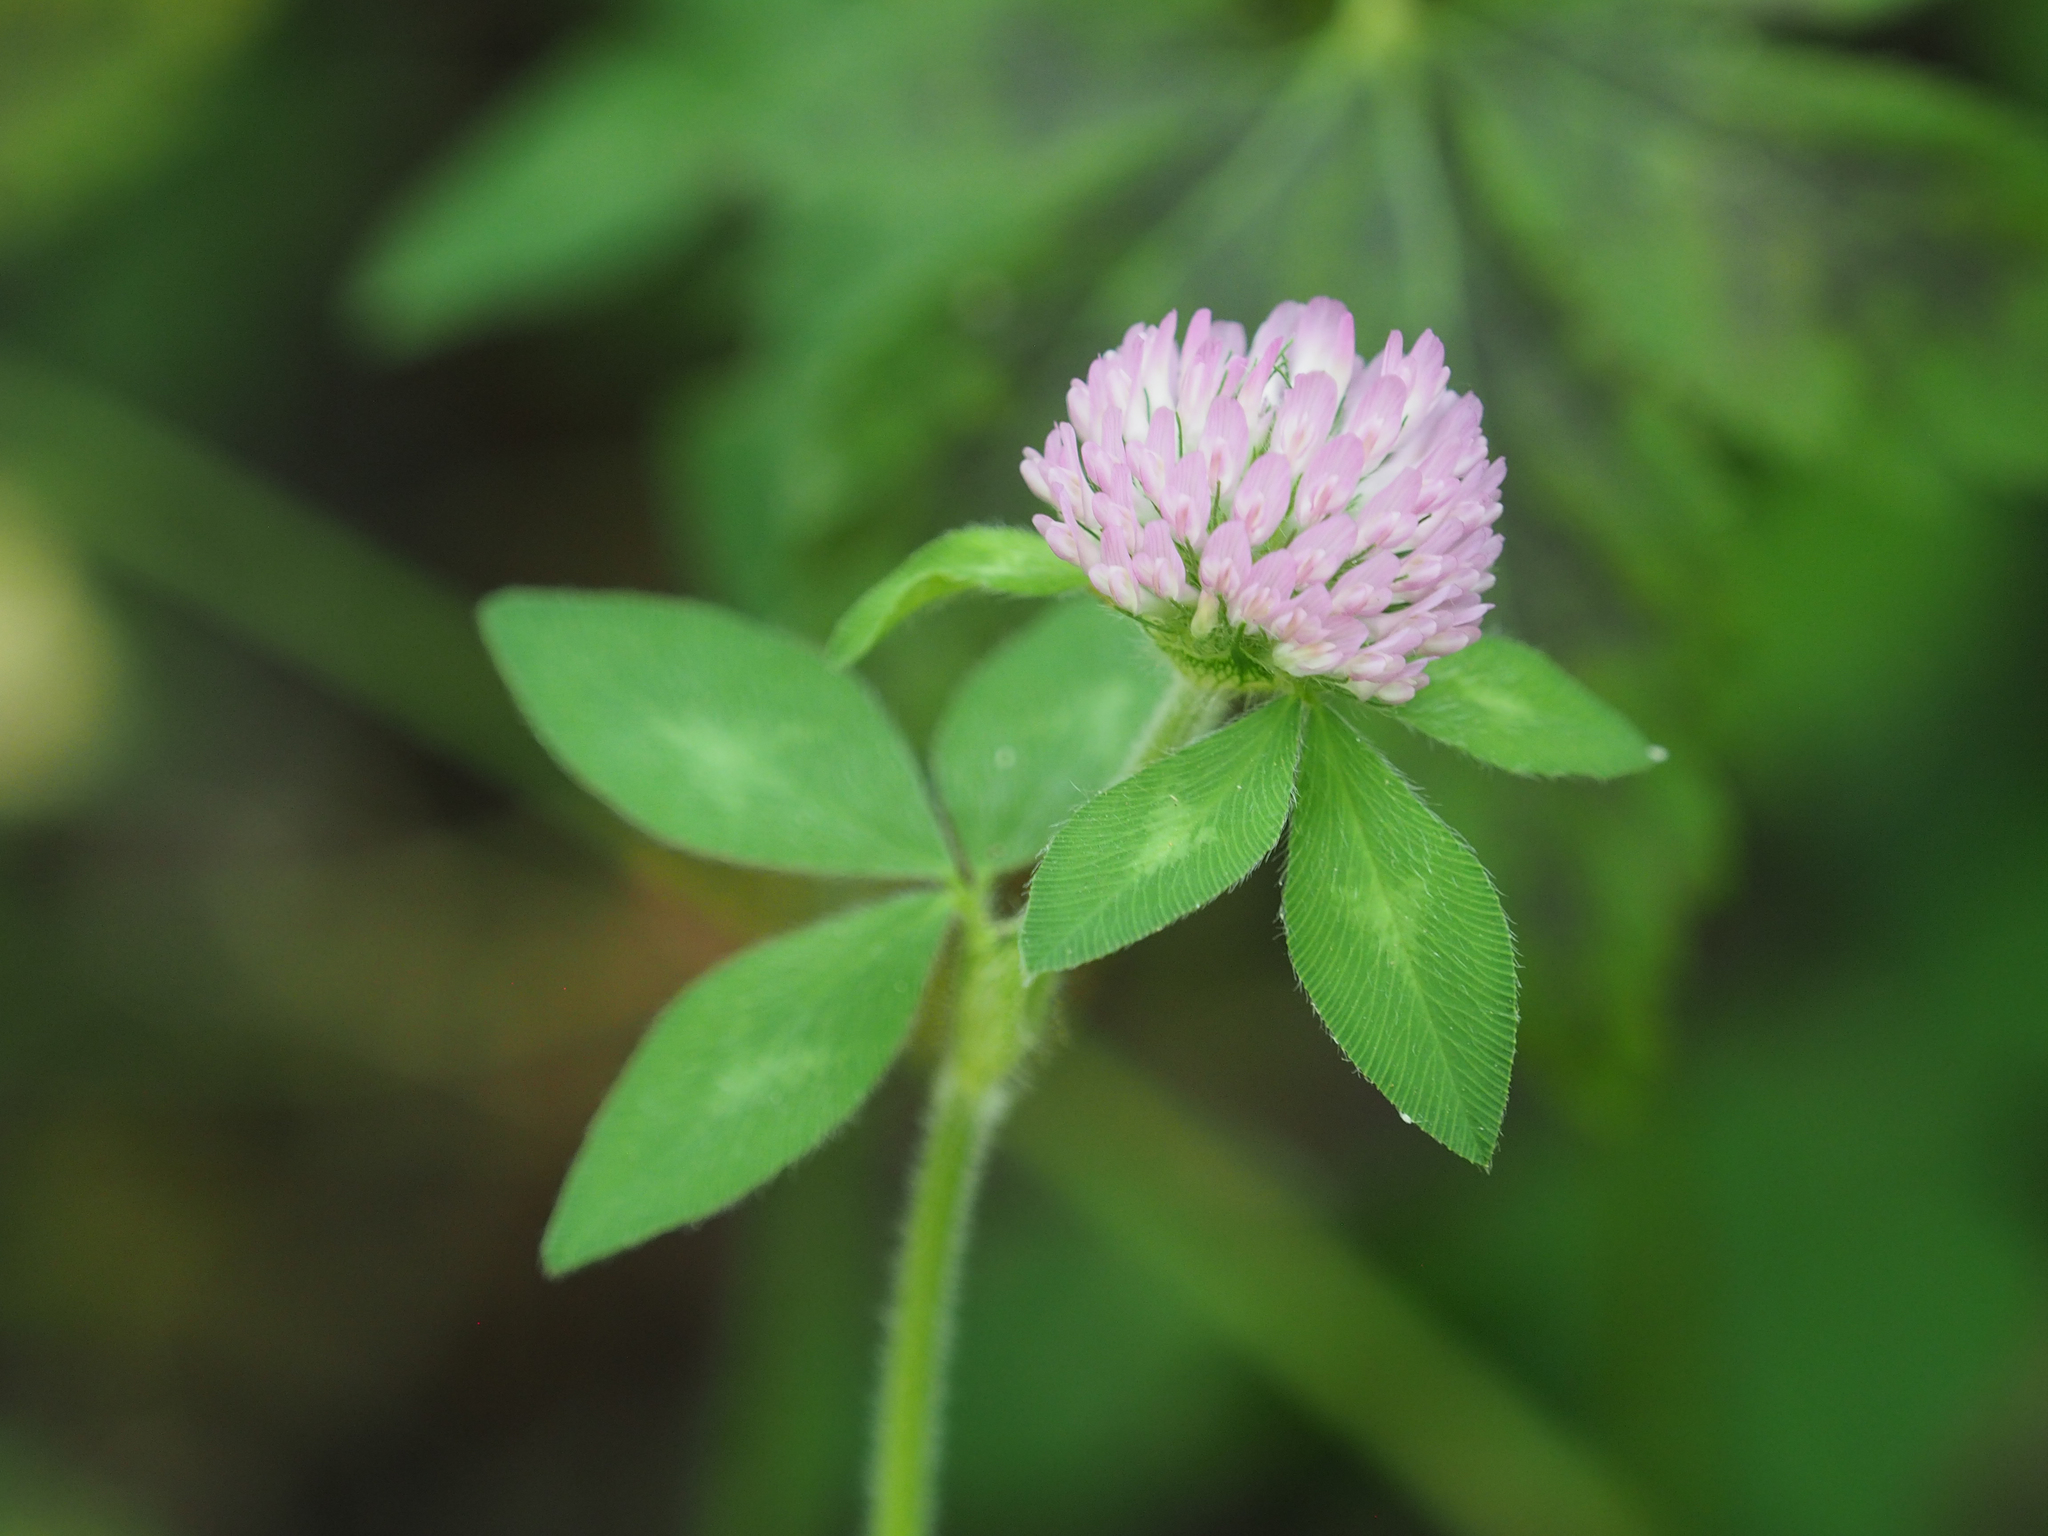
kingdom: Plantae
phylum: Tracheophyta
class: Magnoliopsida
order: Fabales
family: Fabaceae
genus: Trifolium
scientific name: Trifolium pratense
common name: Red clover
